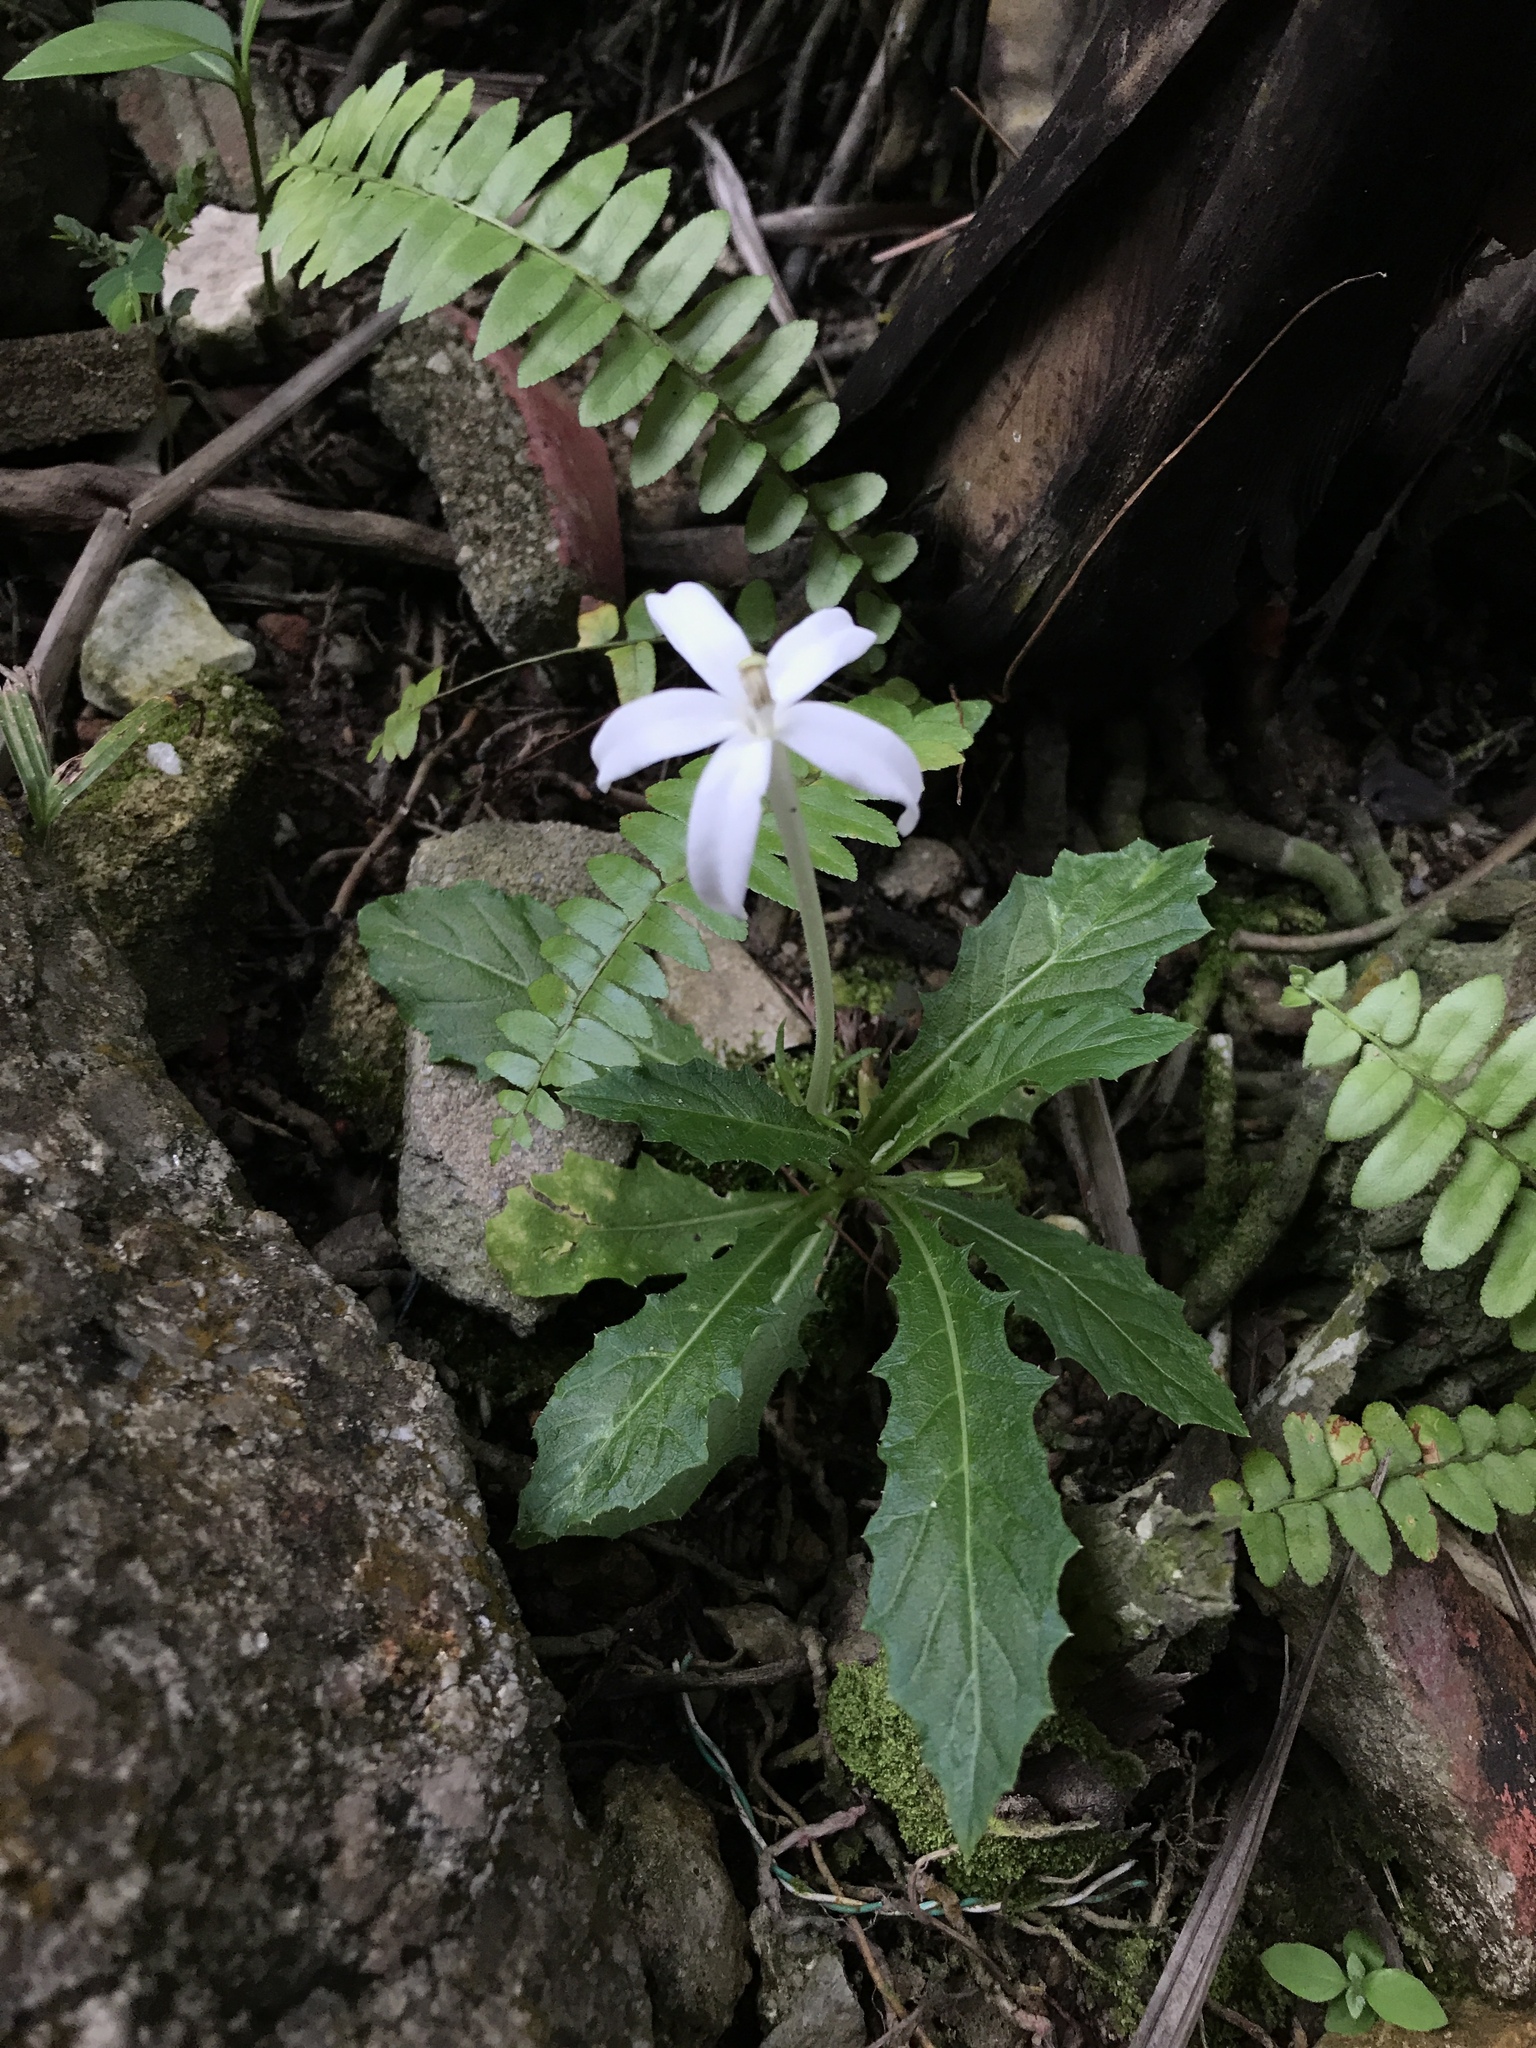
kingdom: Plantae
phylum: Tracheophyta
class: Magnoliopsida
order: Asterales
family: Campanulaceae
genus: Hippobroma
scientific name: Hippobroma longiflora
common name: Madamfate
